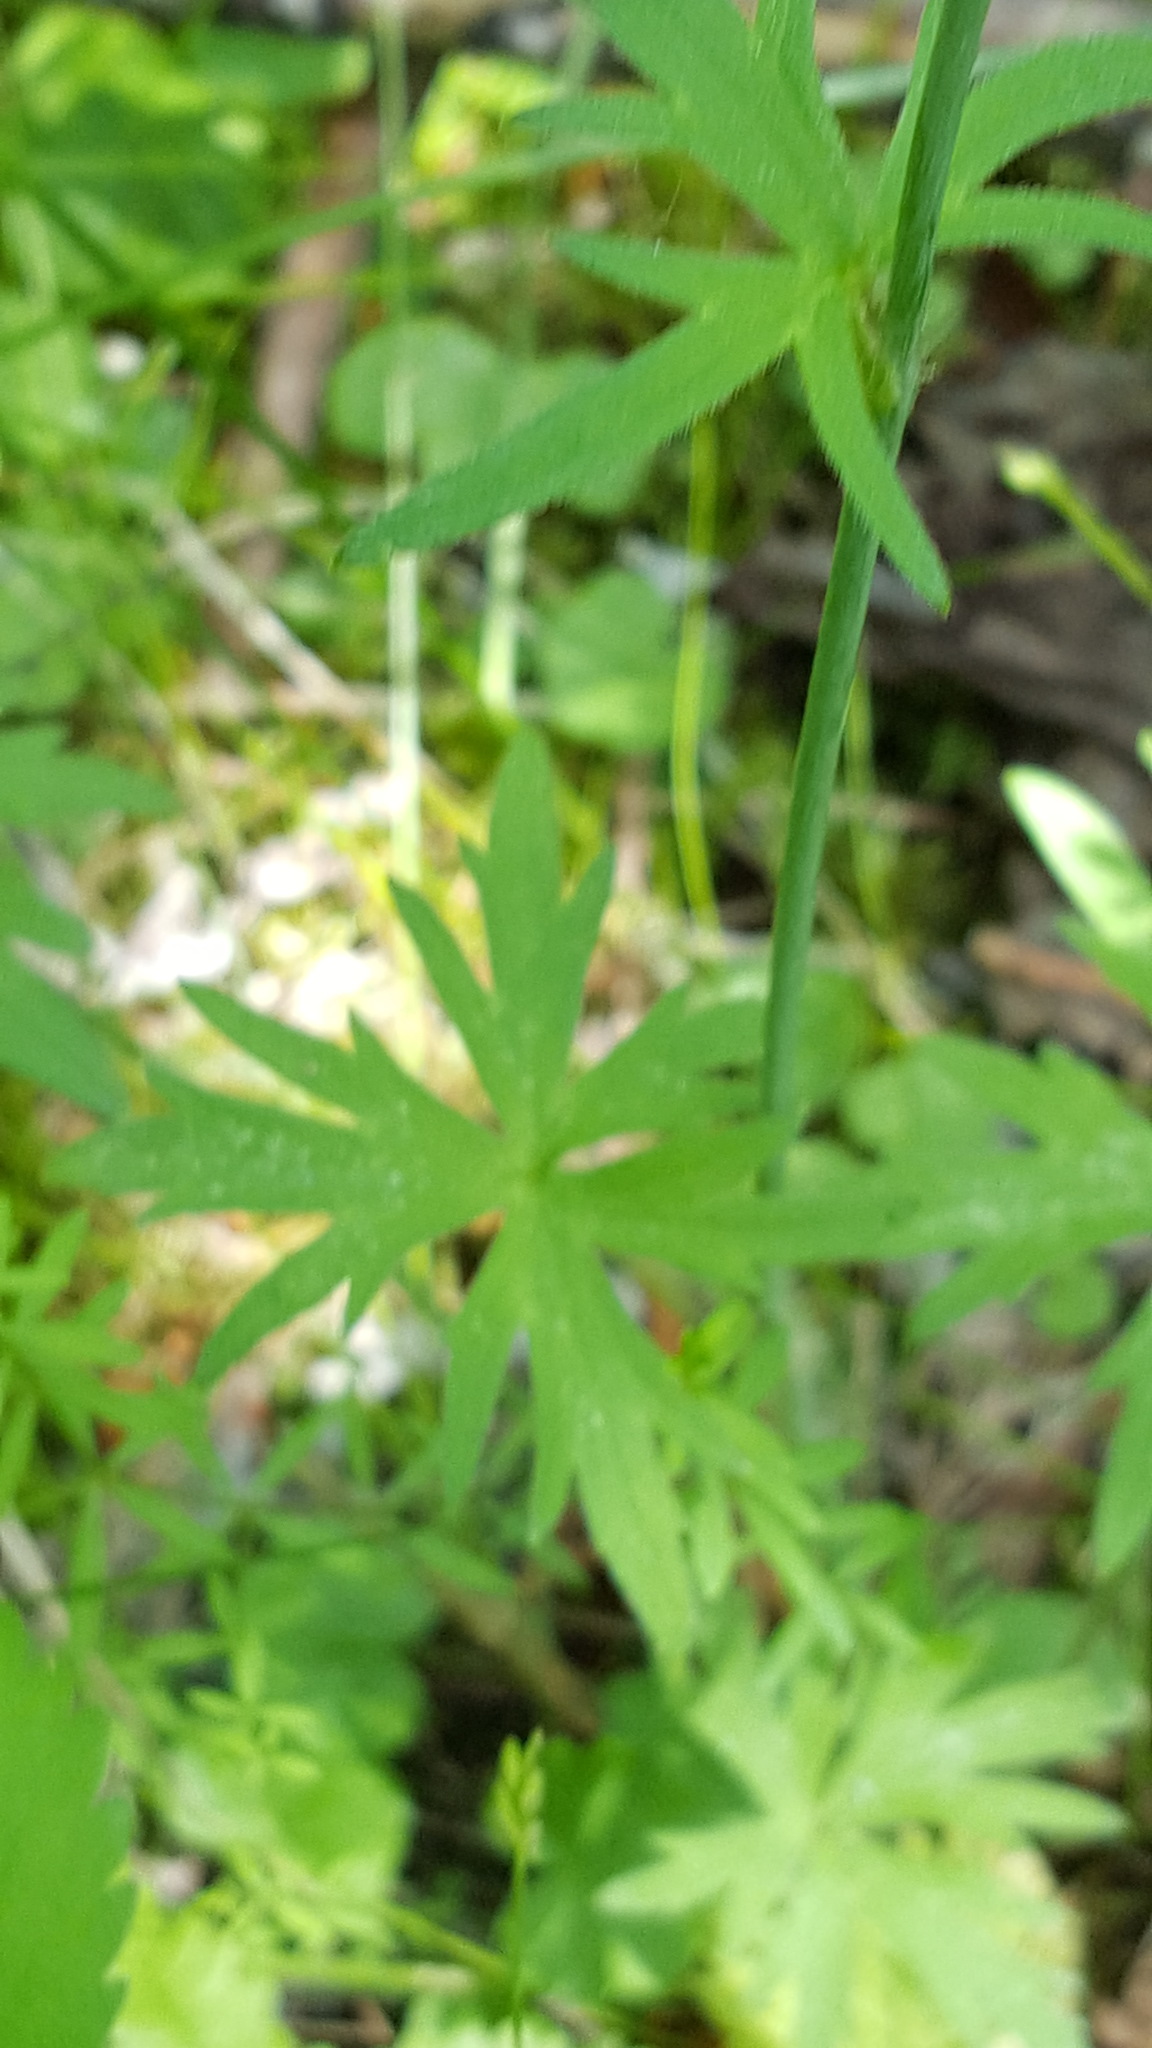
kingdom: Plantae
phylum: Tracheophyta
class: Magnoliopsida
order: Ranunculales
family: Ranunculaceae
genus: Ranunculus
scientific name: Ranunculus acris
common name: Meadow buttercup
